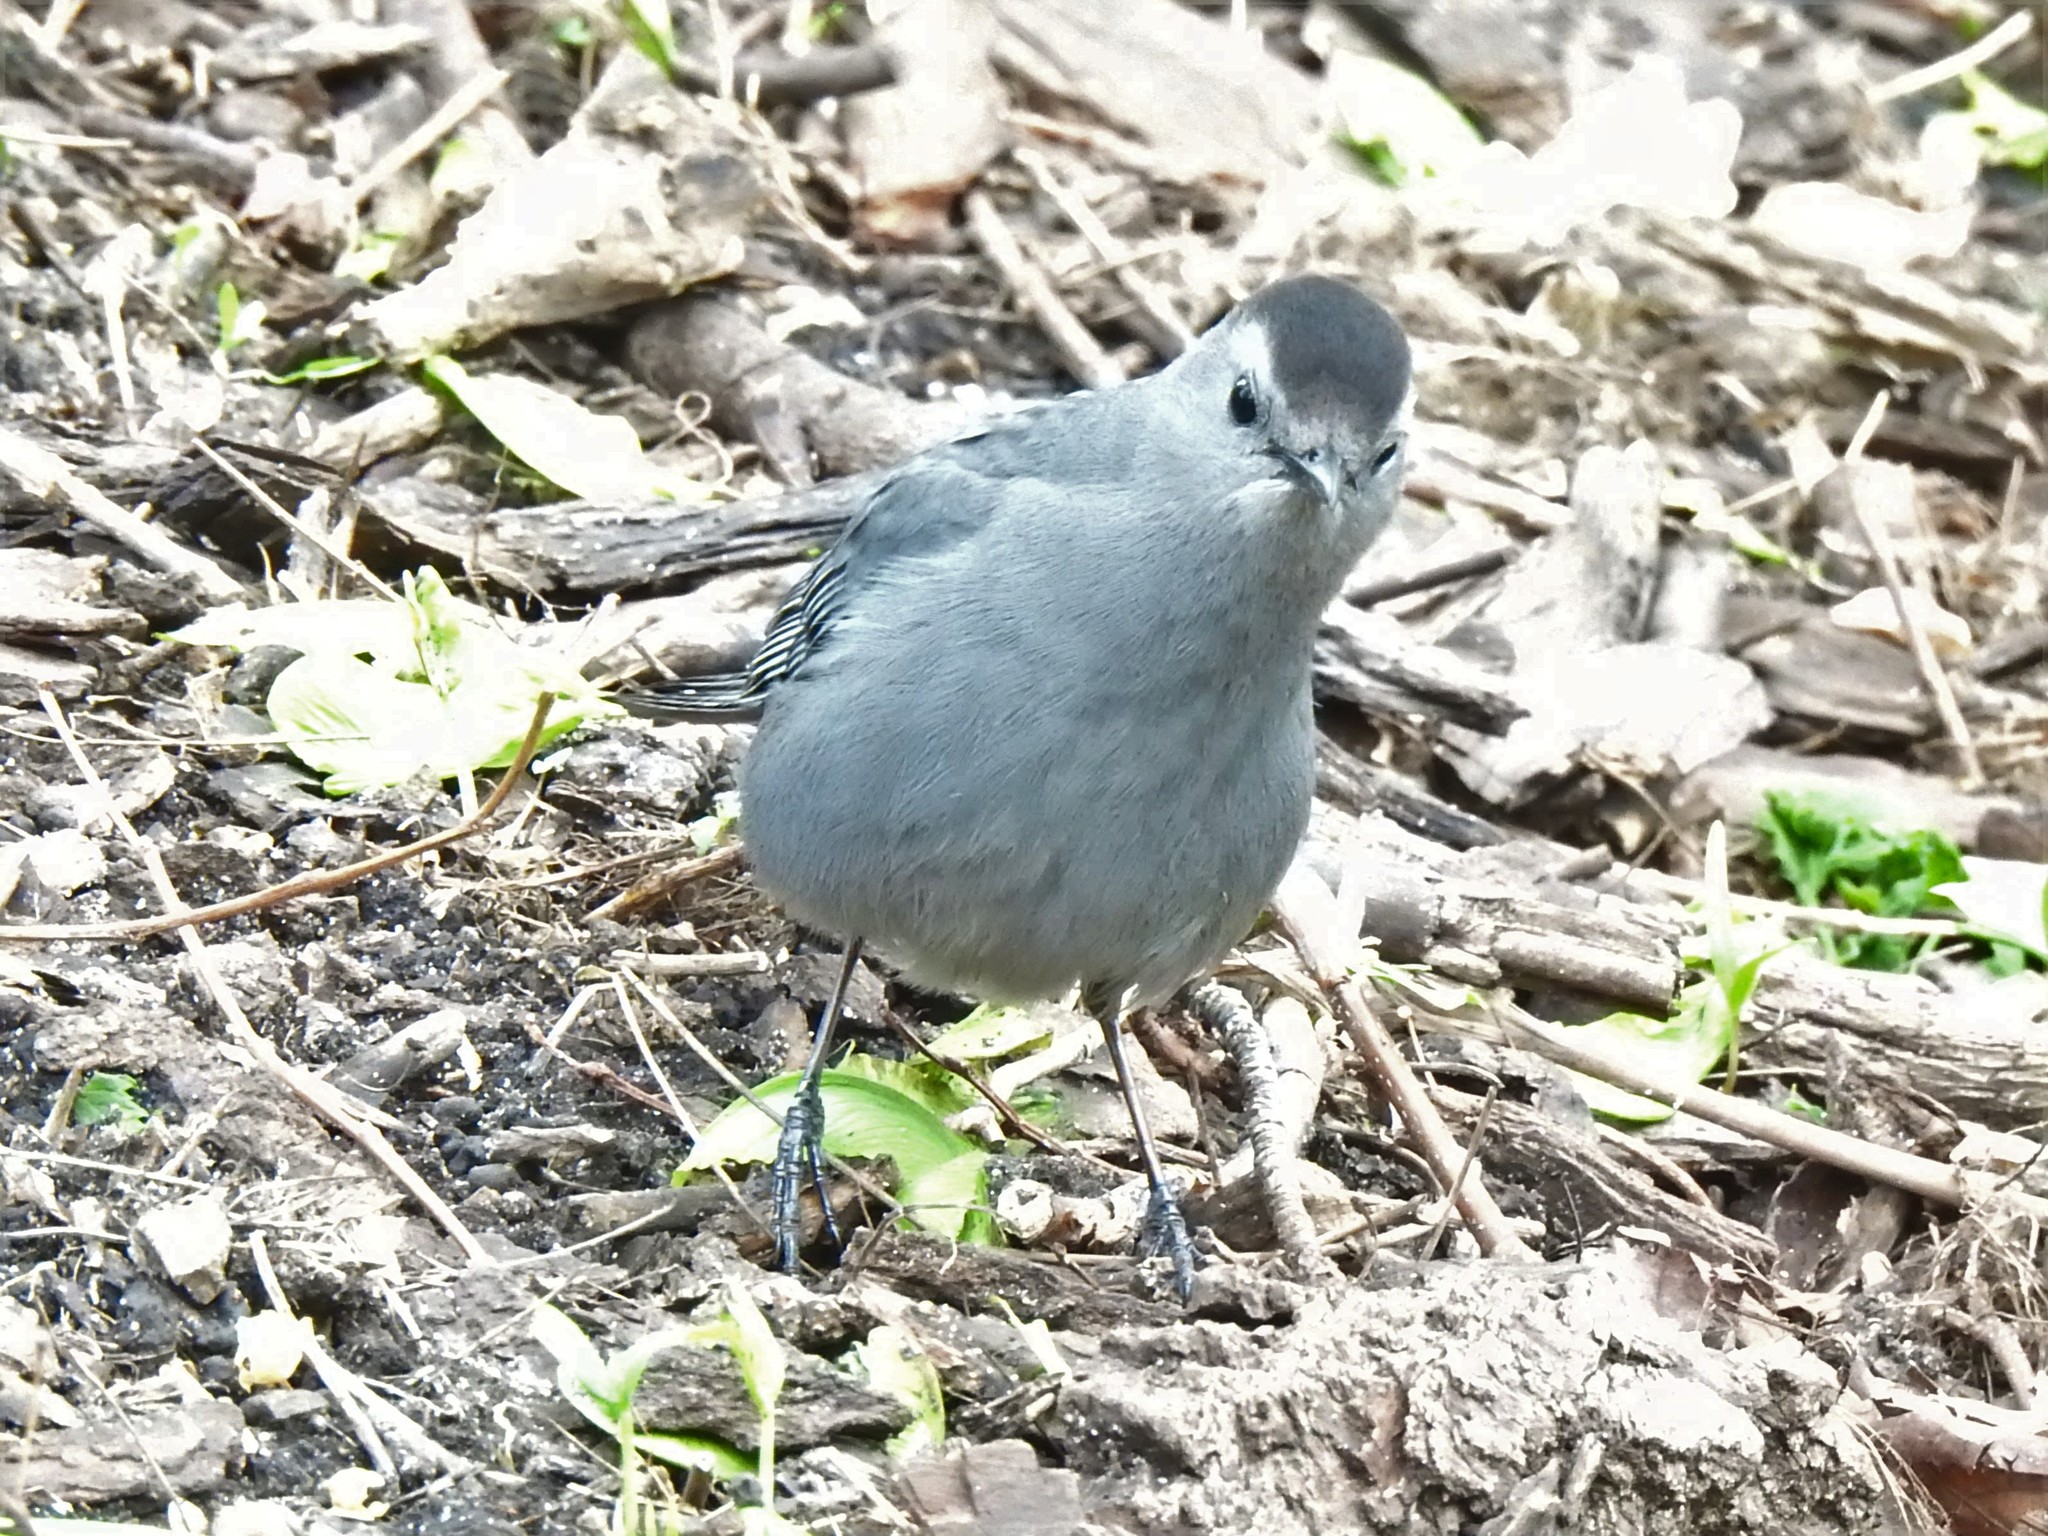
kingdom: Animalia
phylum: Chordata
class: Aves
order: Passeriformes
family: Mimidae
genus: Dumetella
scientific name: Dumetella carolinensis
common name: Gray catbird
